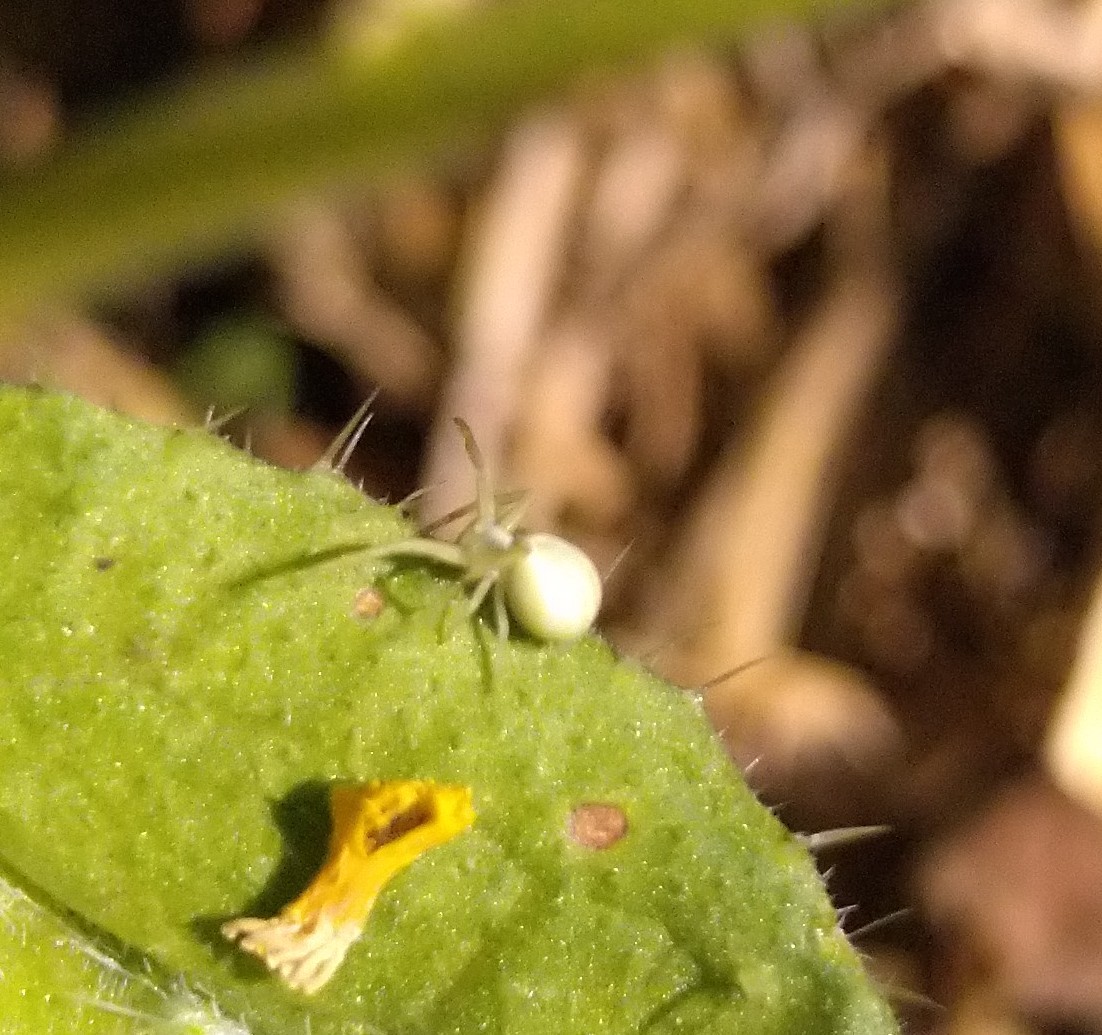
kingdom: Animalia
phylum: Arthropoda
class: Arachnida
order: Araneae
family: Thomisidae
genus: Misumena
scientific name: Misumena vatia
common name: Goldenrod crab spider
